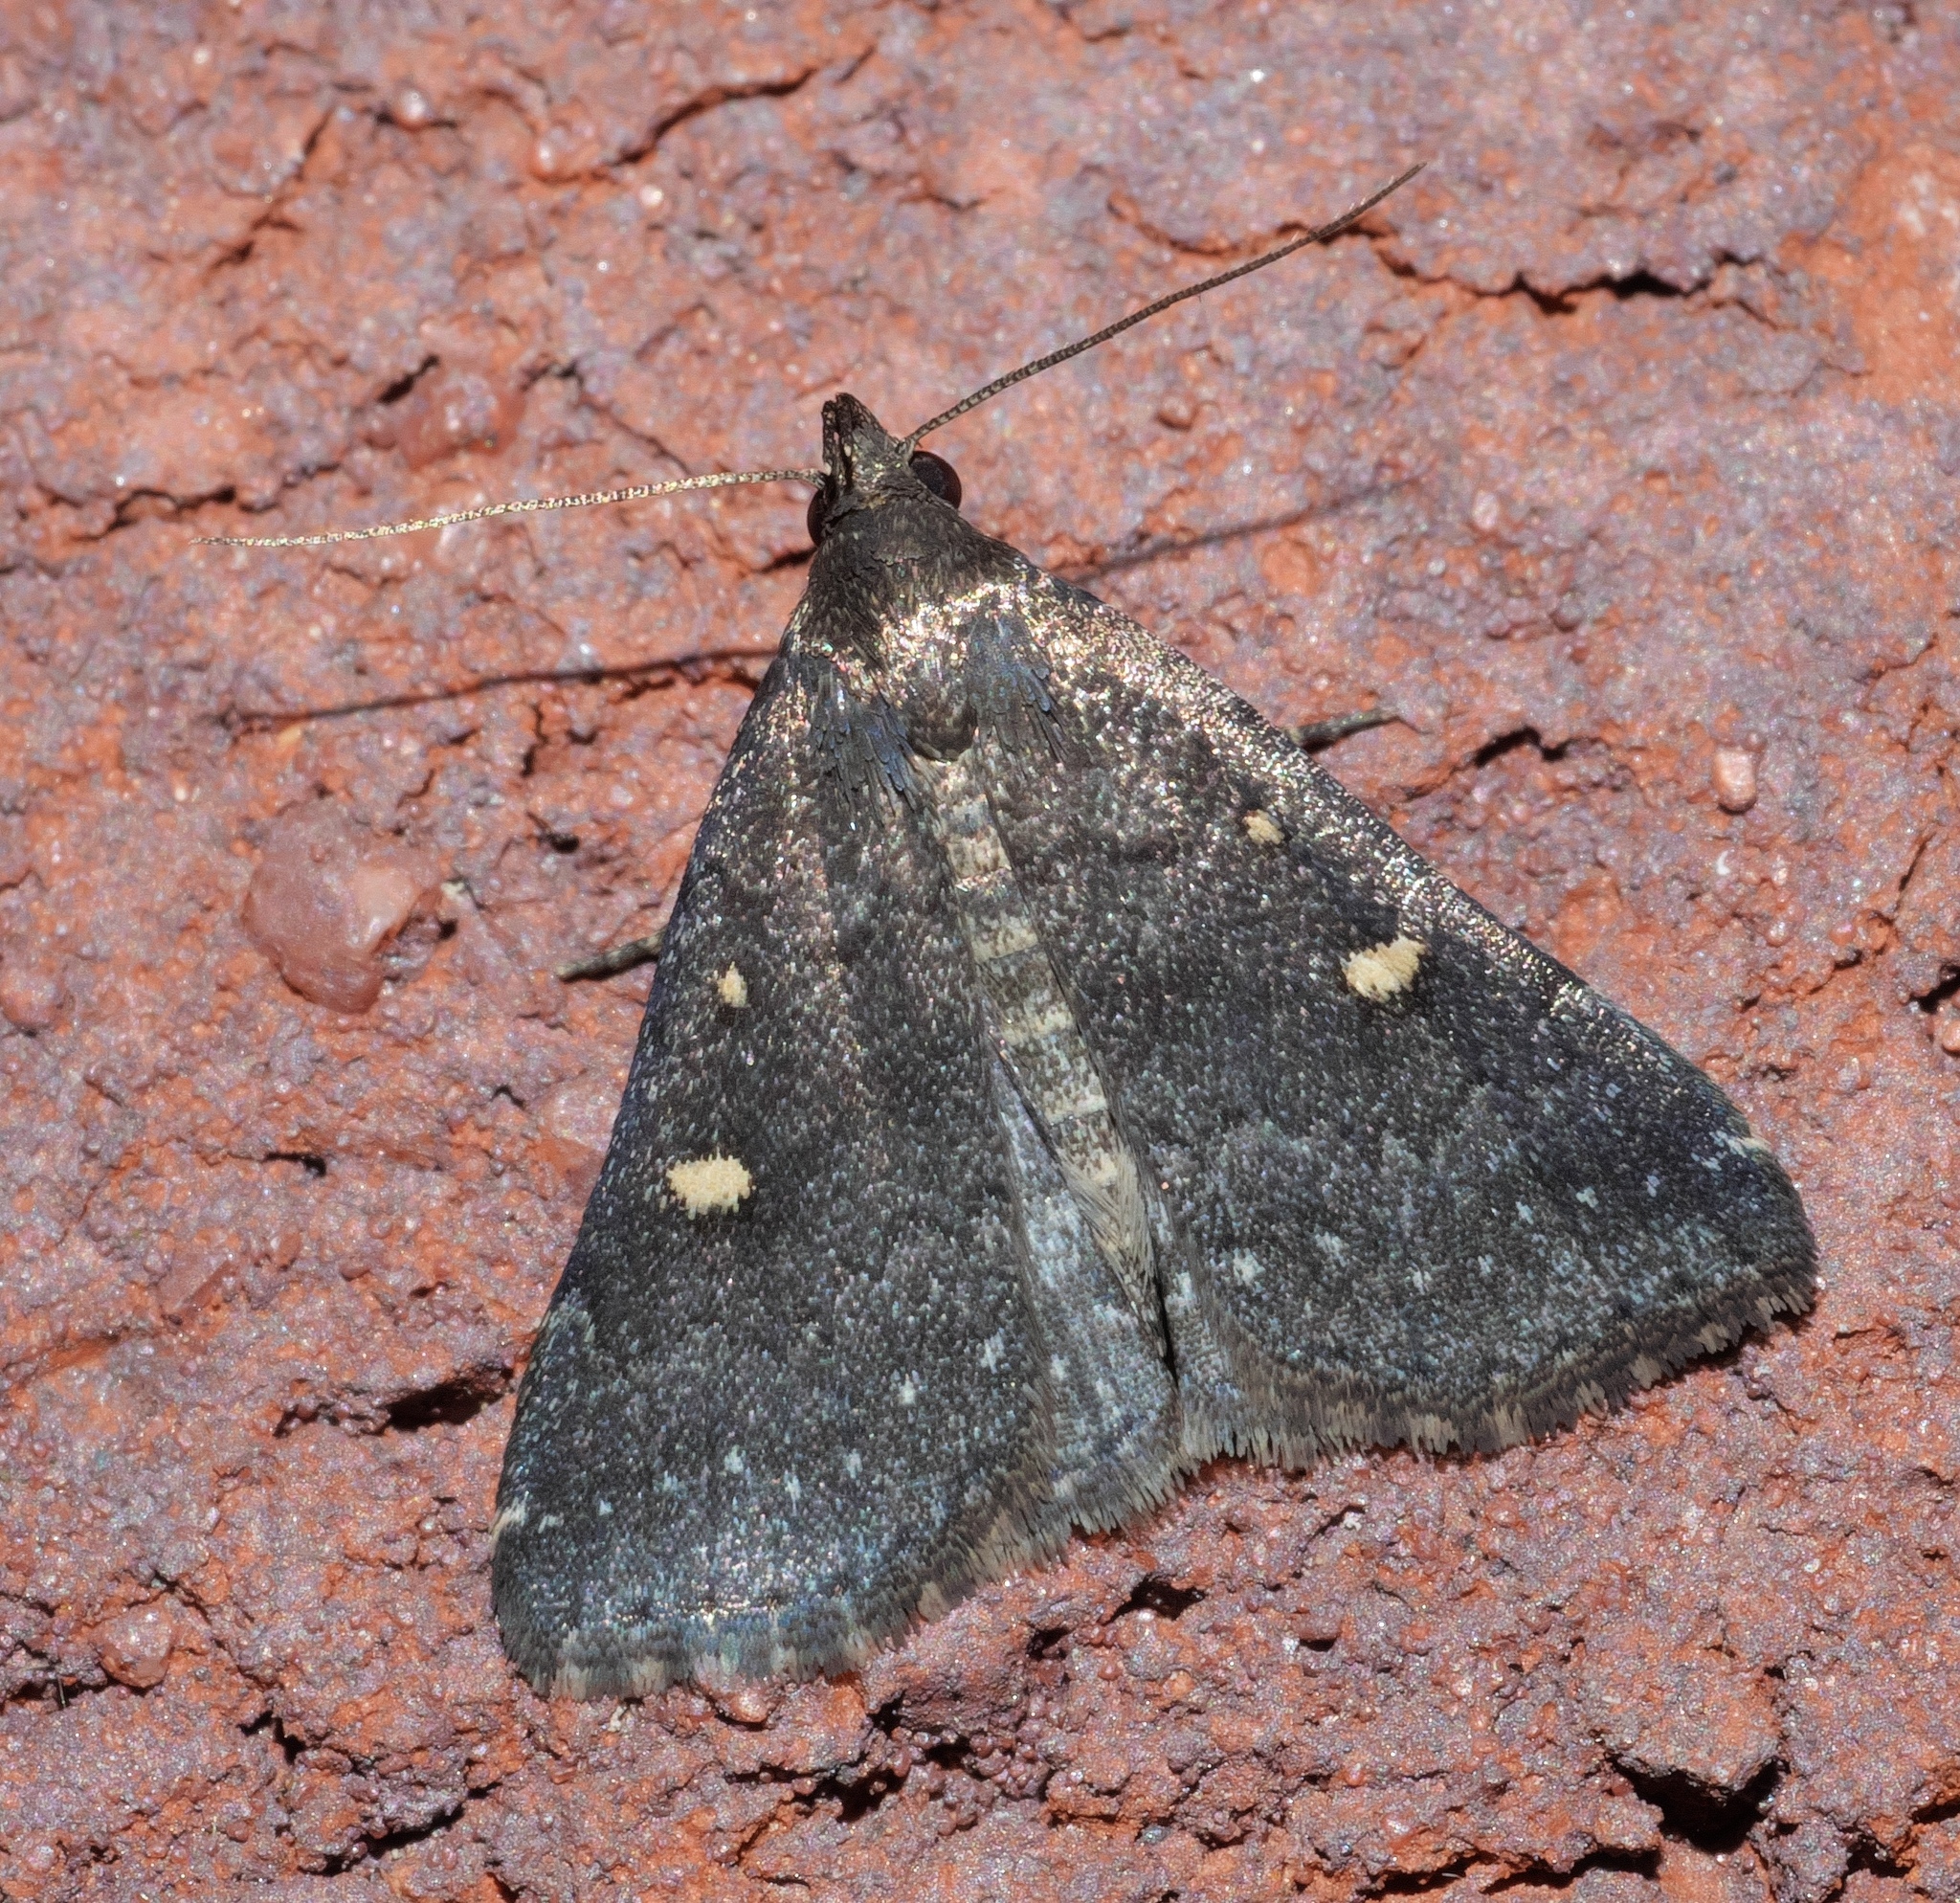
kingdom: Animalia
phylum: Arthropoda
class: Insecta
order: Lepidoptera
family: Erebidae
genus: Tetanolita
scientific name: Tetanolita mynesalis
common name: Smoky tetanolita moth
